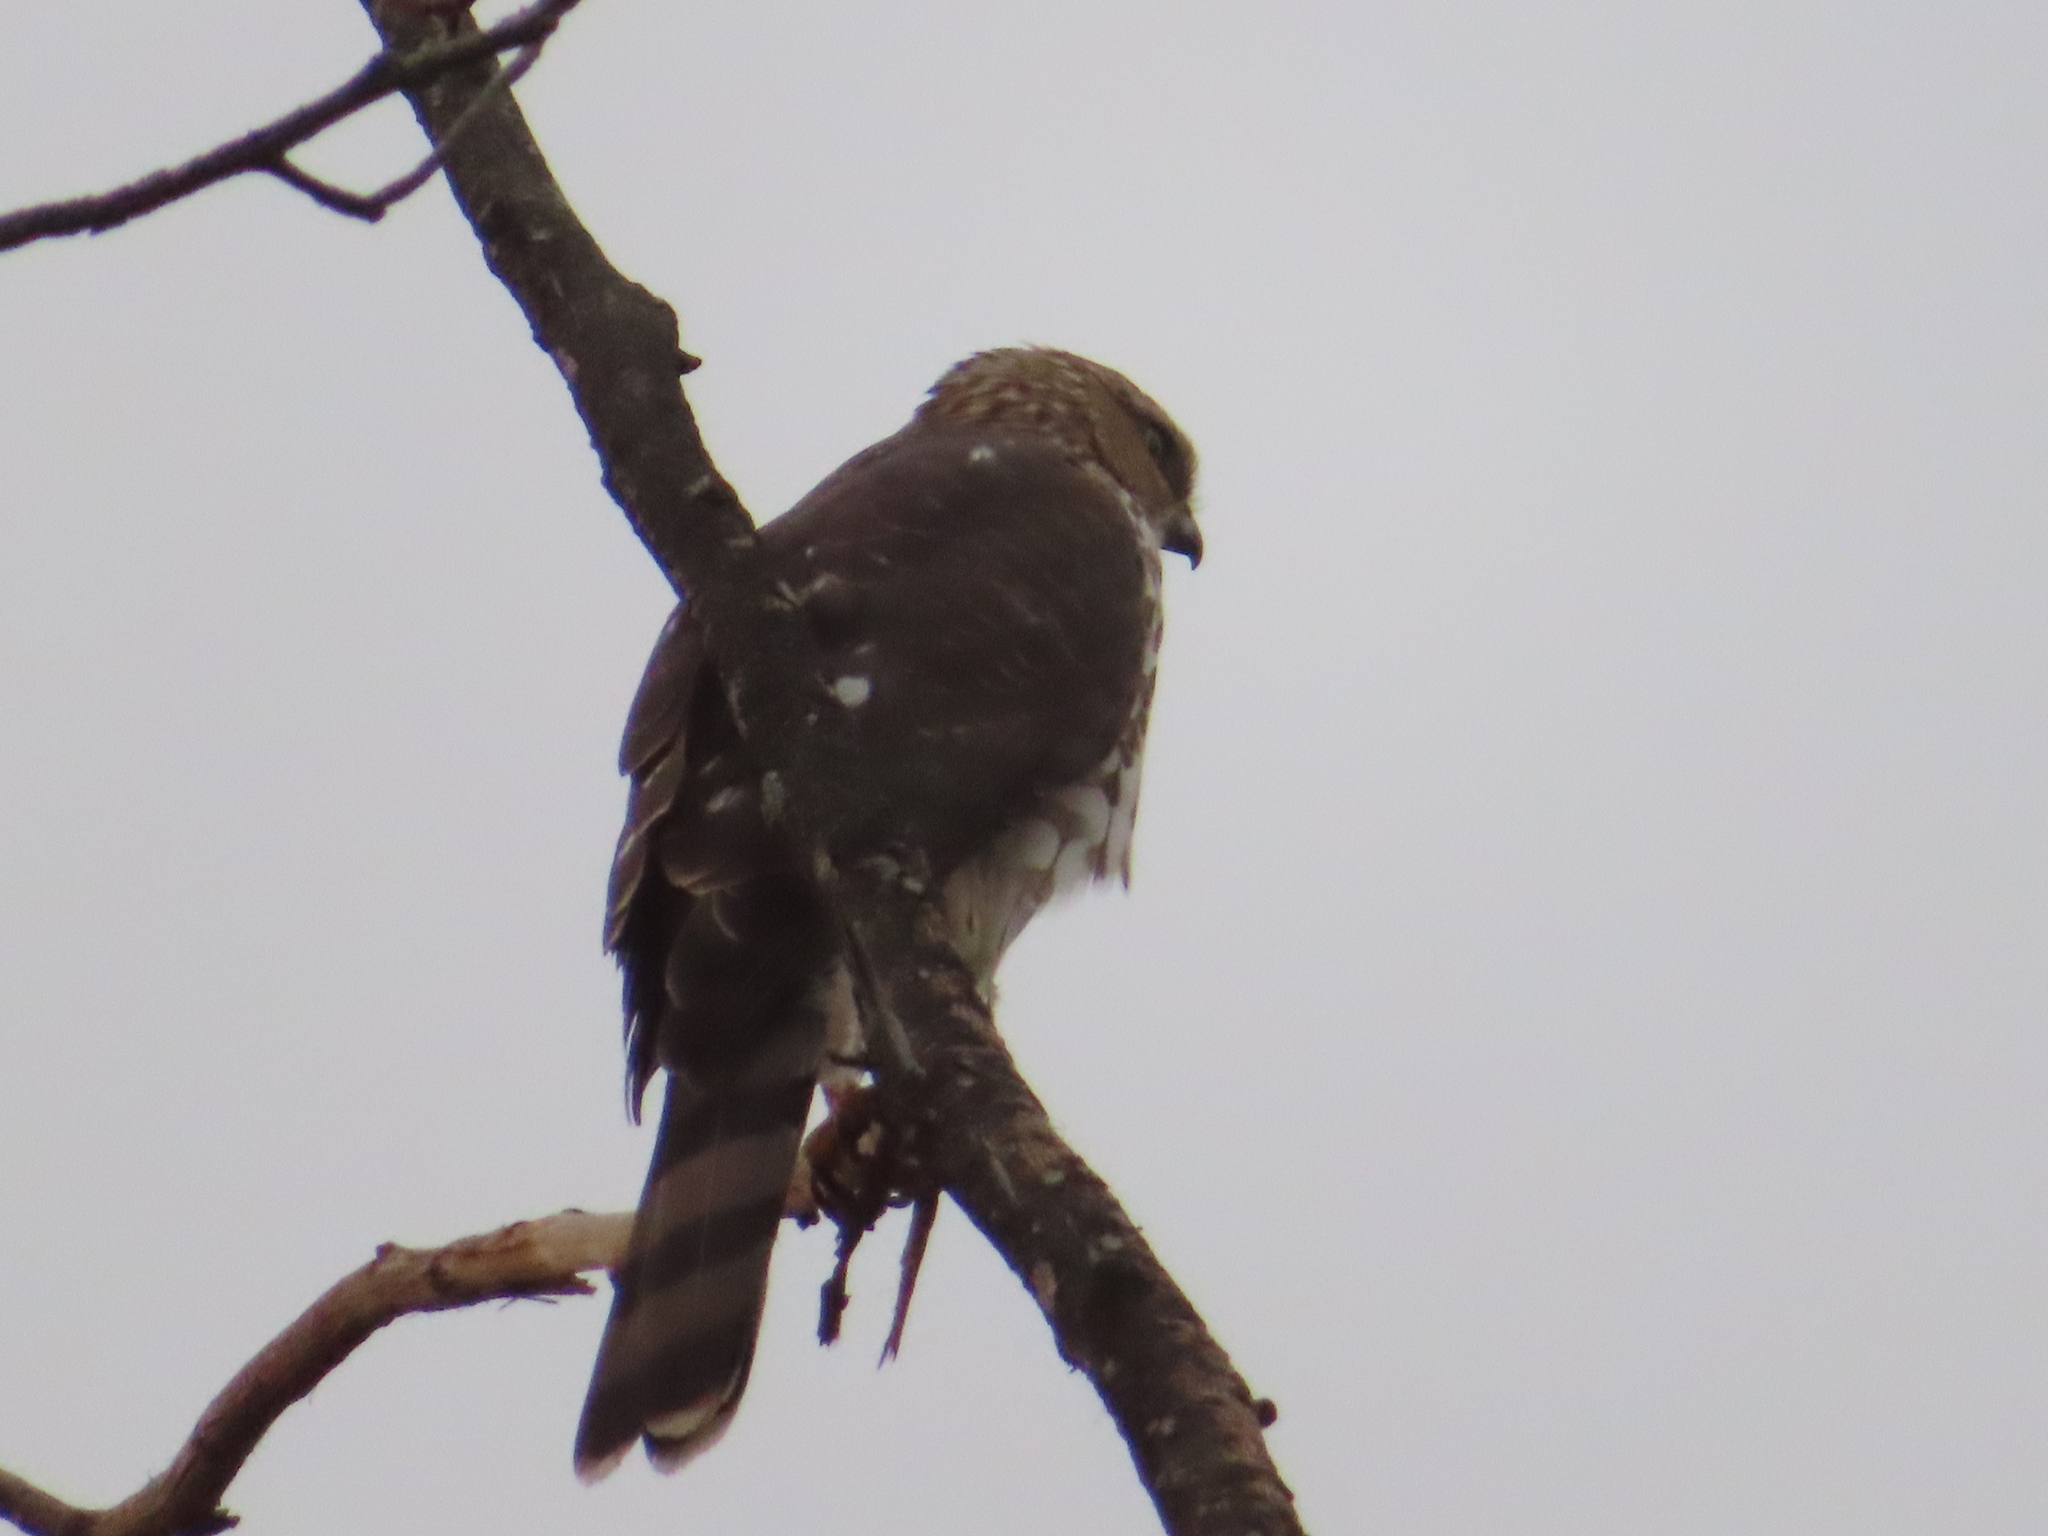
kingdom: Animalia
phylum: Chordata
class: Aves
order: Accipitriformes
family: Accipitridae
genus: Accipiter
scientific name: Accipiter cooperii
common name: Cooper's hawk
